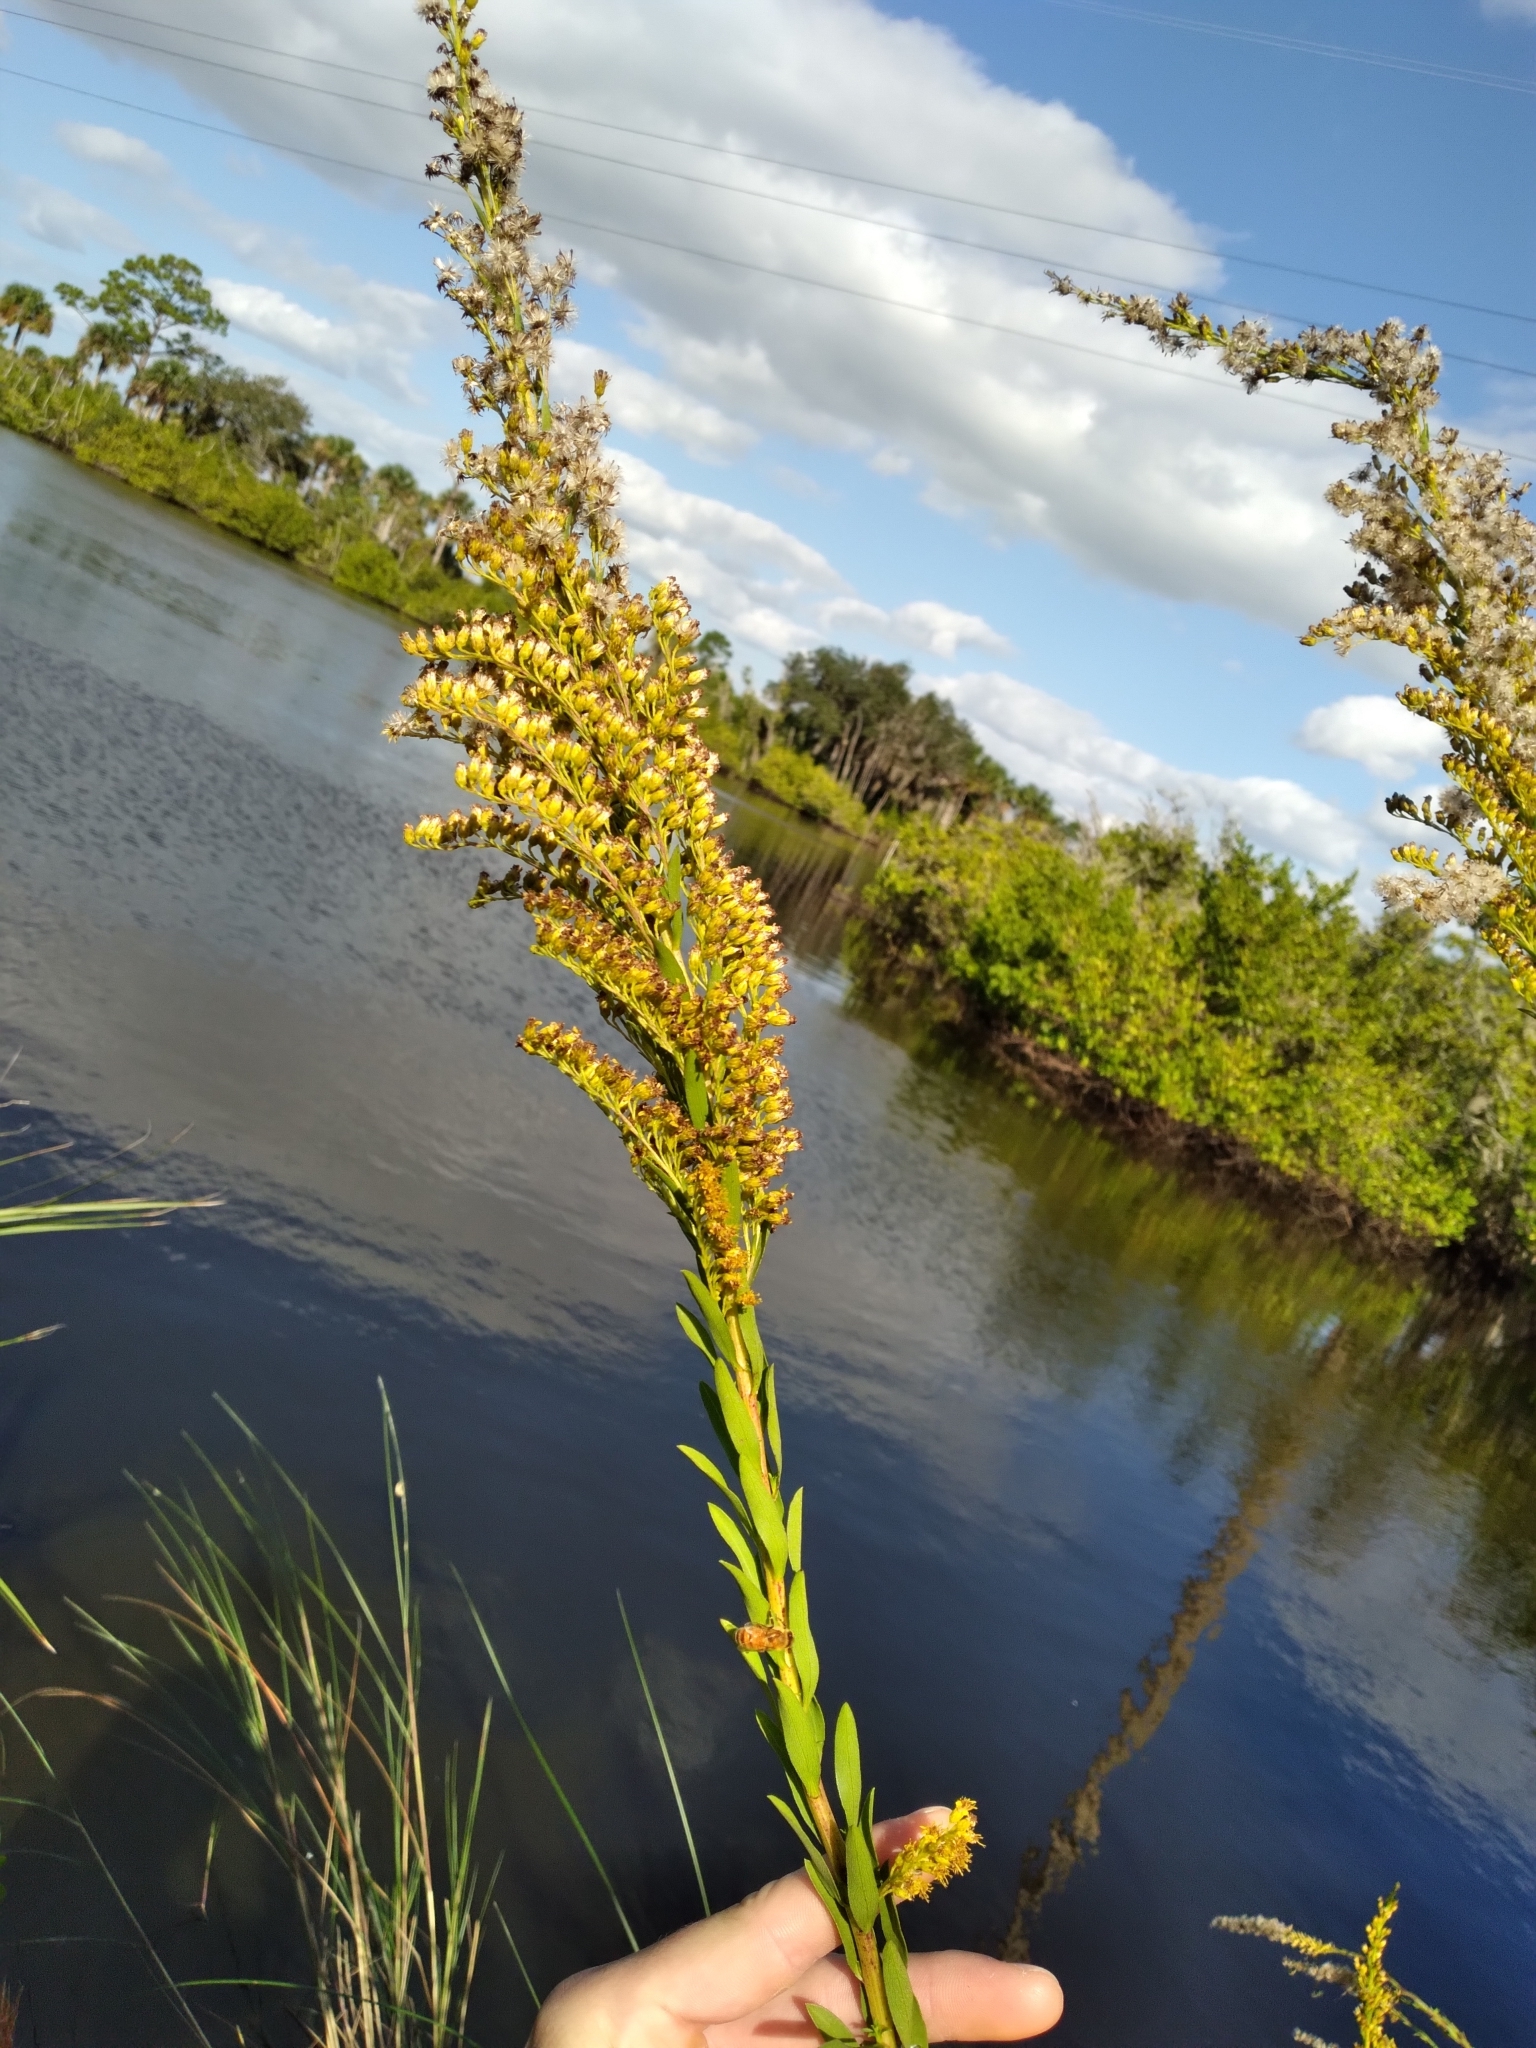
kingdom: Plantae
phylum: Tracheophyta
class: Magnoliopsida
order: Asterales
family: Asteraceae
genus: Solidago
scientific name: Solidago mexicana
